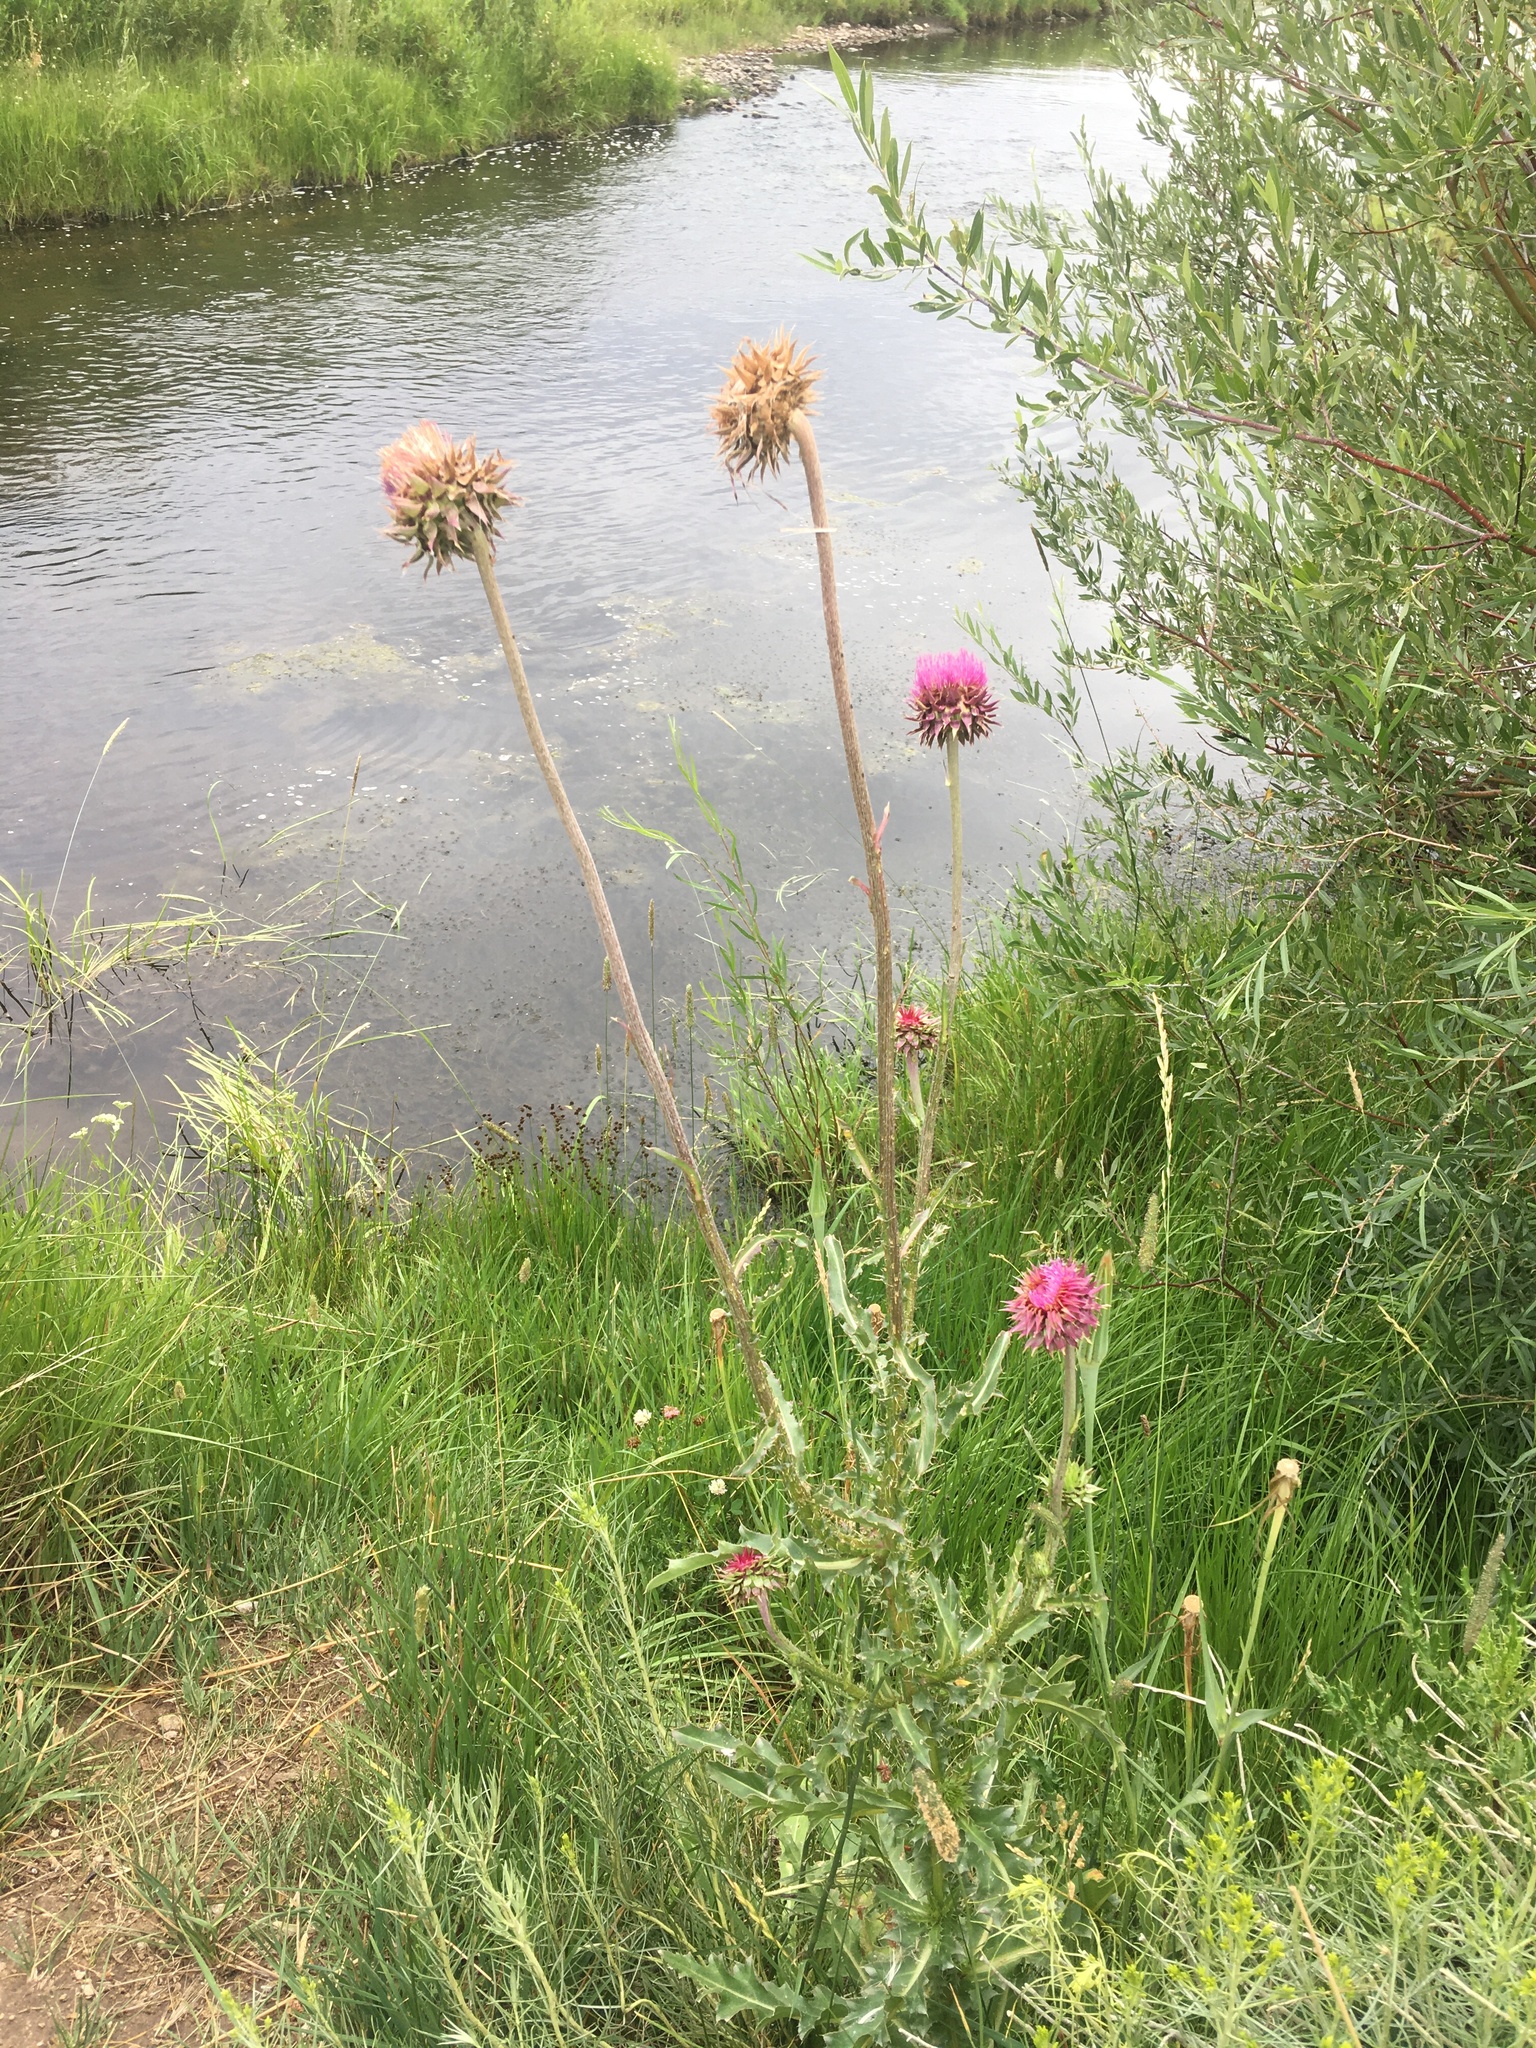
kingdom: Plantae
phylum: Tracheophyta
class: Magnoliopsida
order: Asterales
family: Asteraceae
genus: Carduus
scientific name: Carduus nutans
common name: Musk thistle
